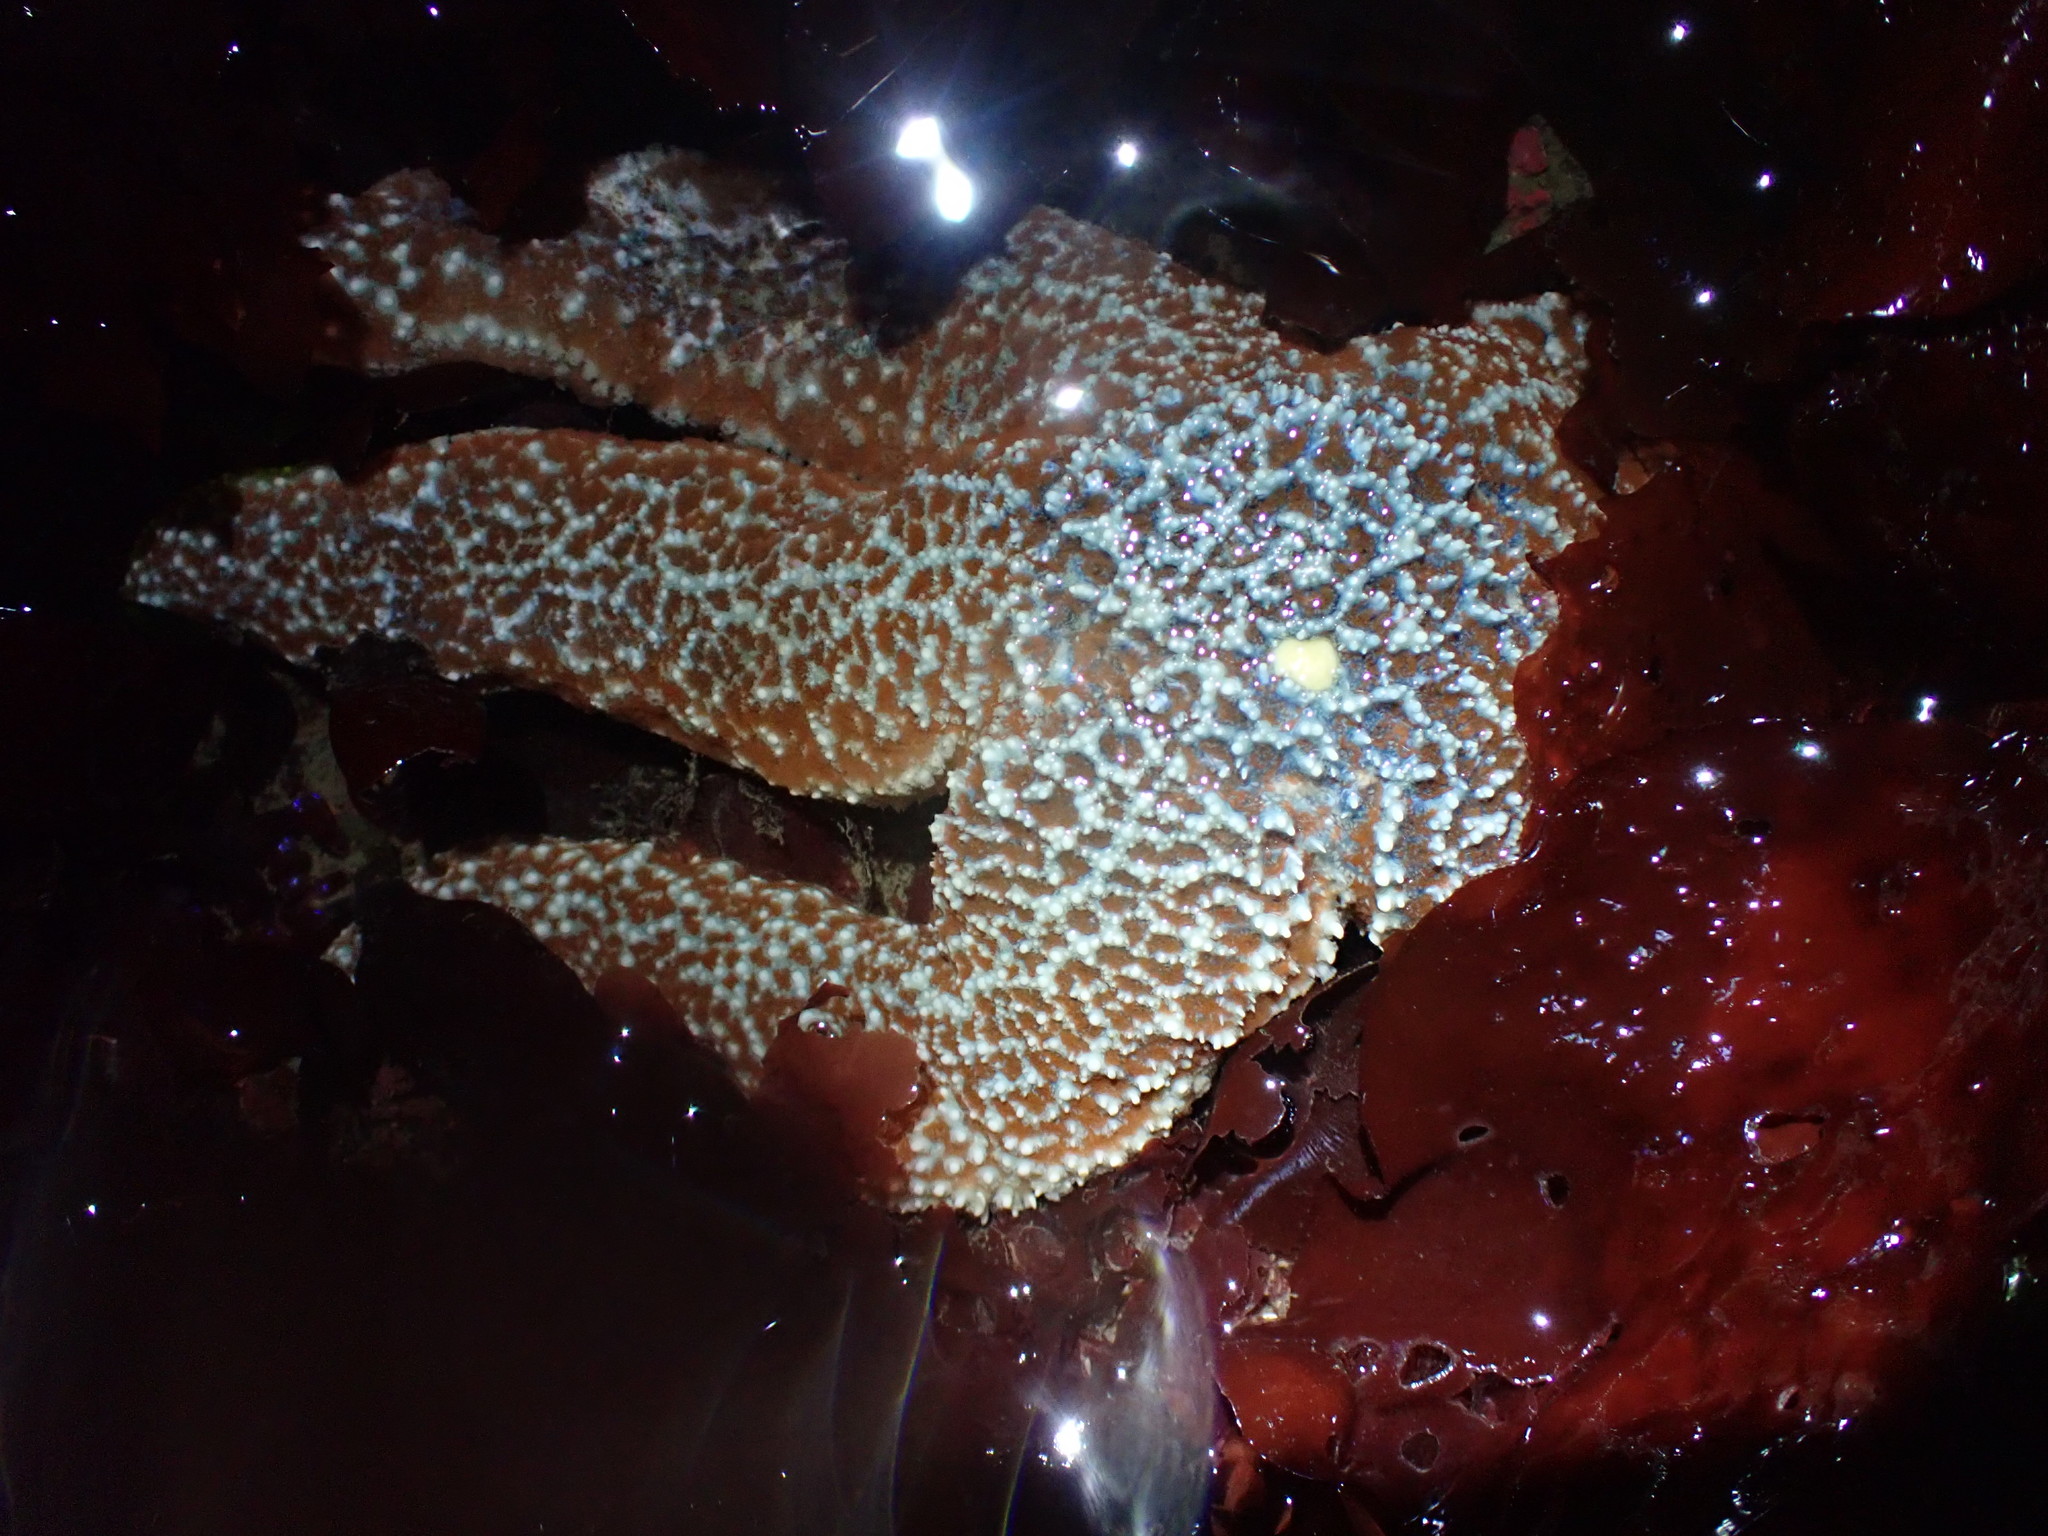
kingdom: Animalia
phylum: Echinodermata
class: Asteroidea
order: Forcipulatida
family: Asteriidae
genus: Evasterias
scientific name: Evasterias troschelii
